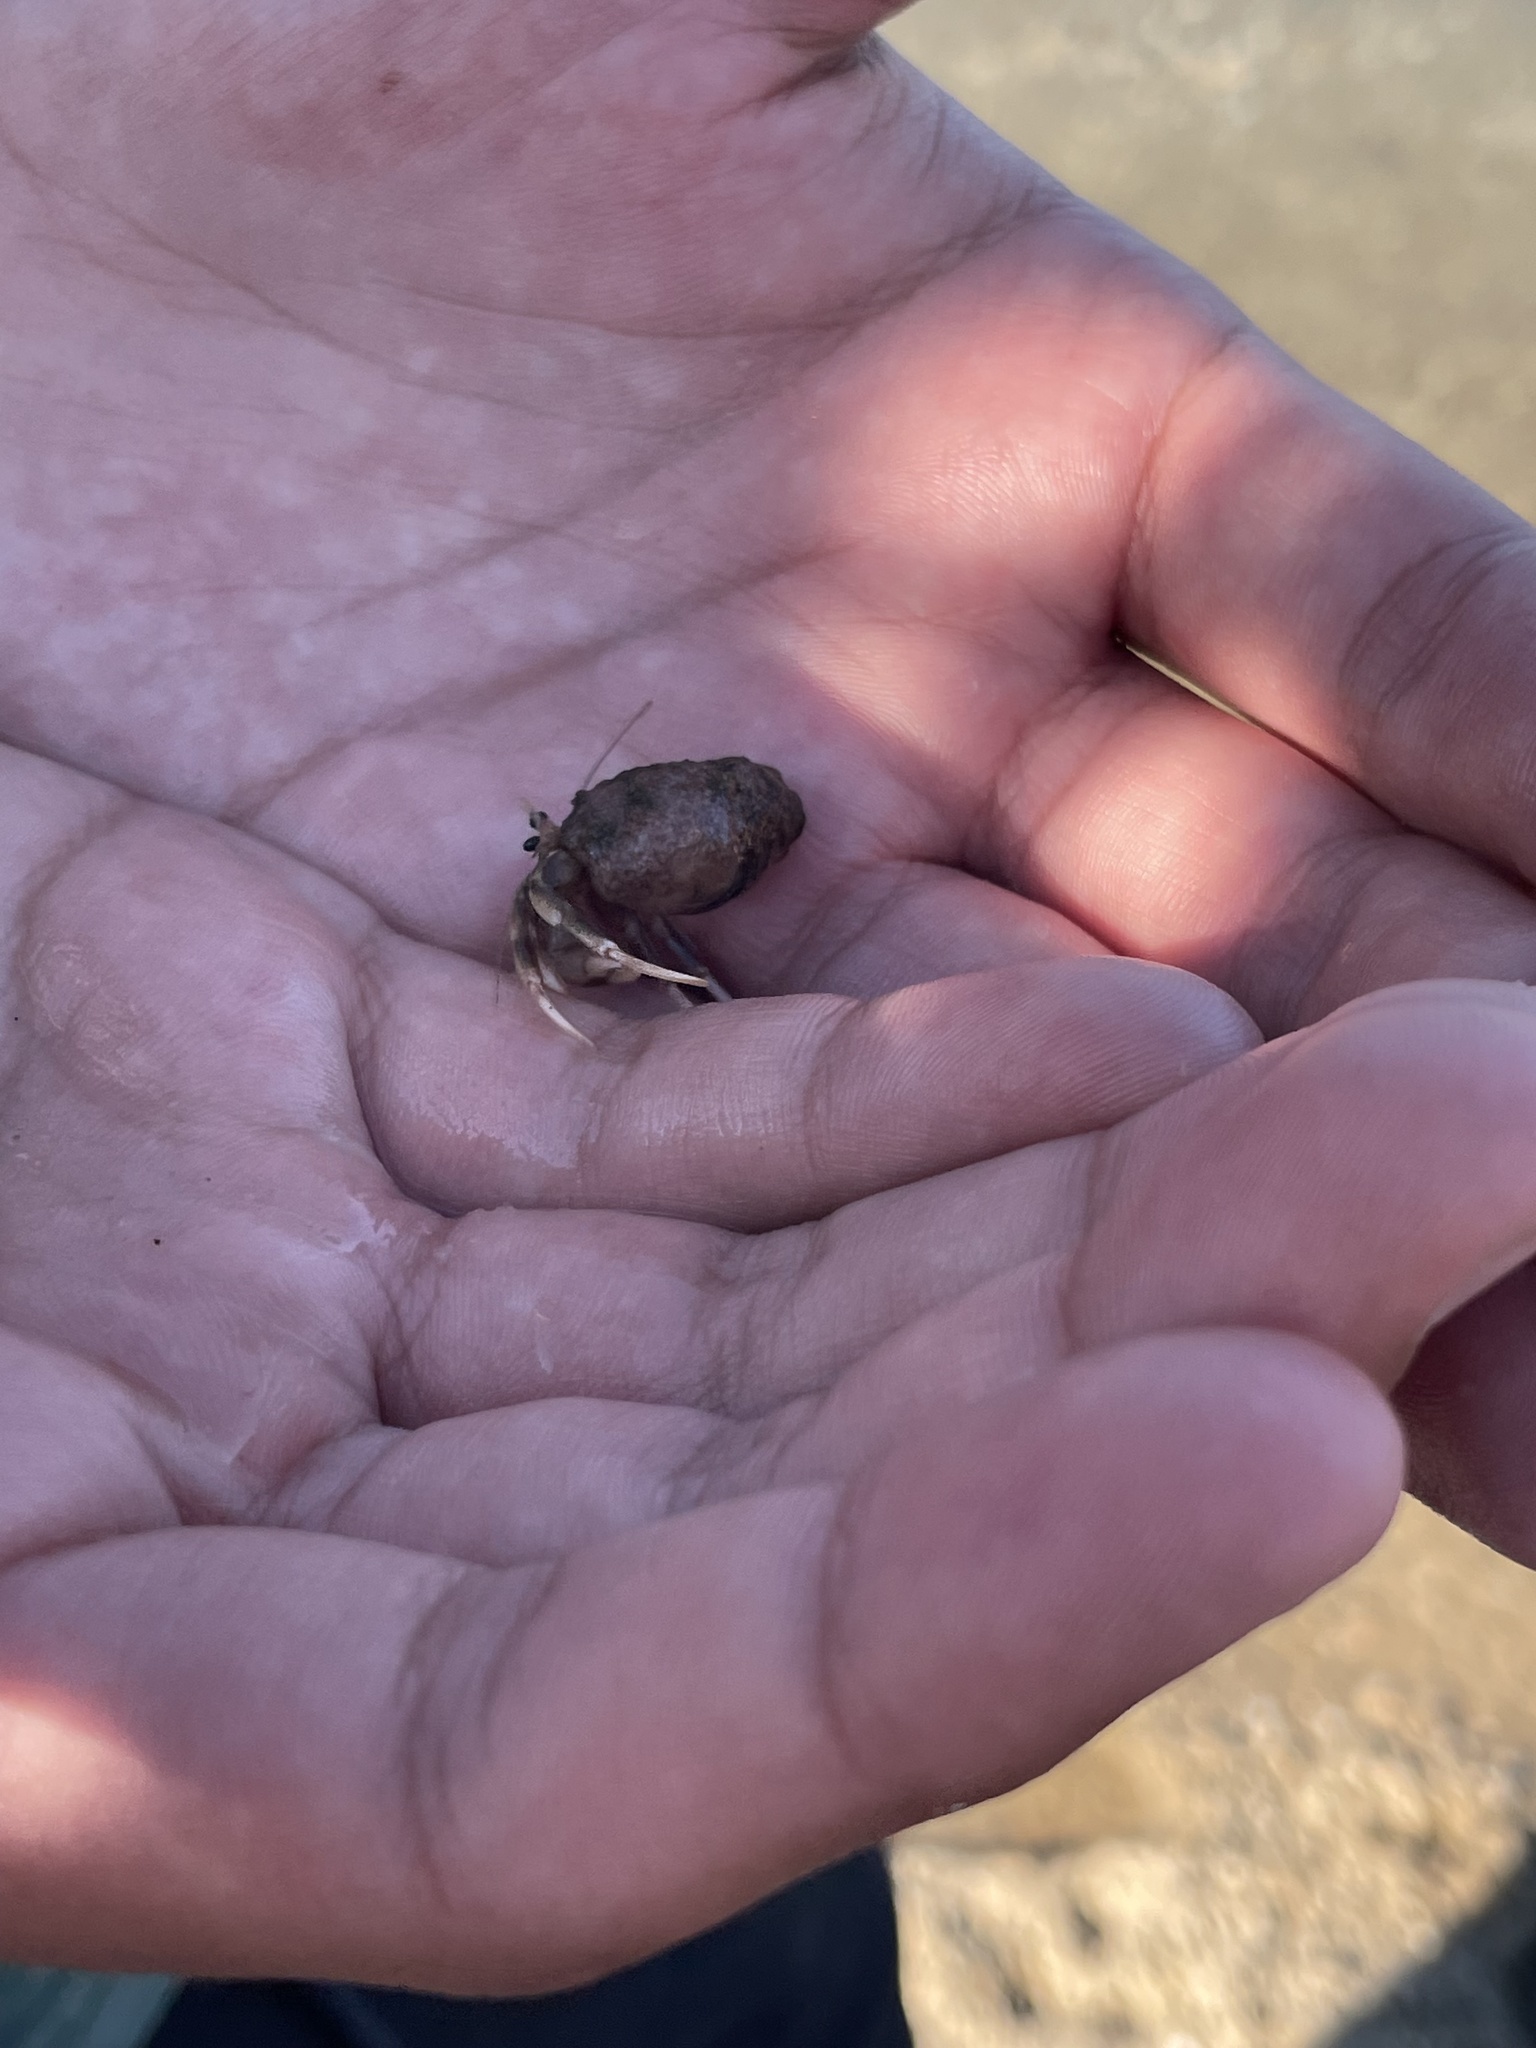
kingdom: Animalia
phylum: Arthropoda
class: Malacostraca
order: Decapoda
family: Paguridae
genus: Pagurus
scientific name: Pagurus longicarpus
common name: Long-armed hermit crab
